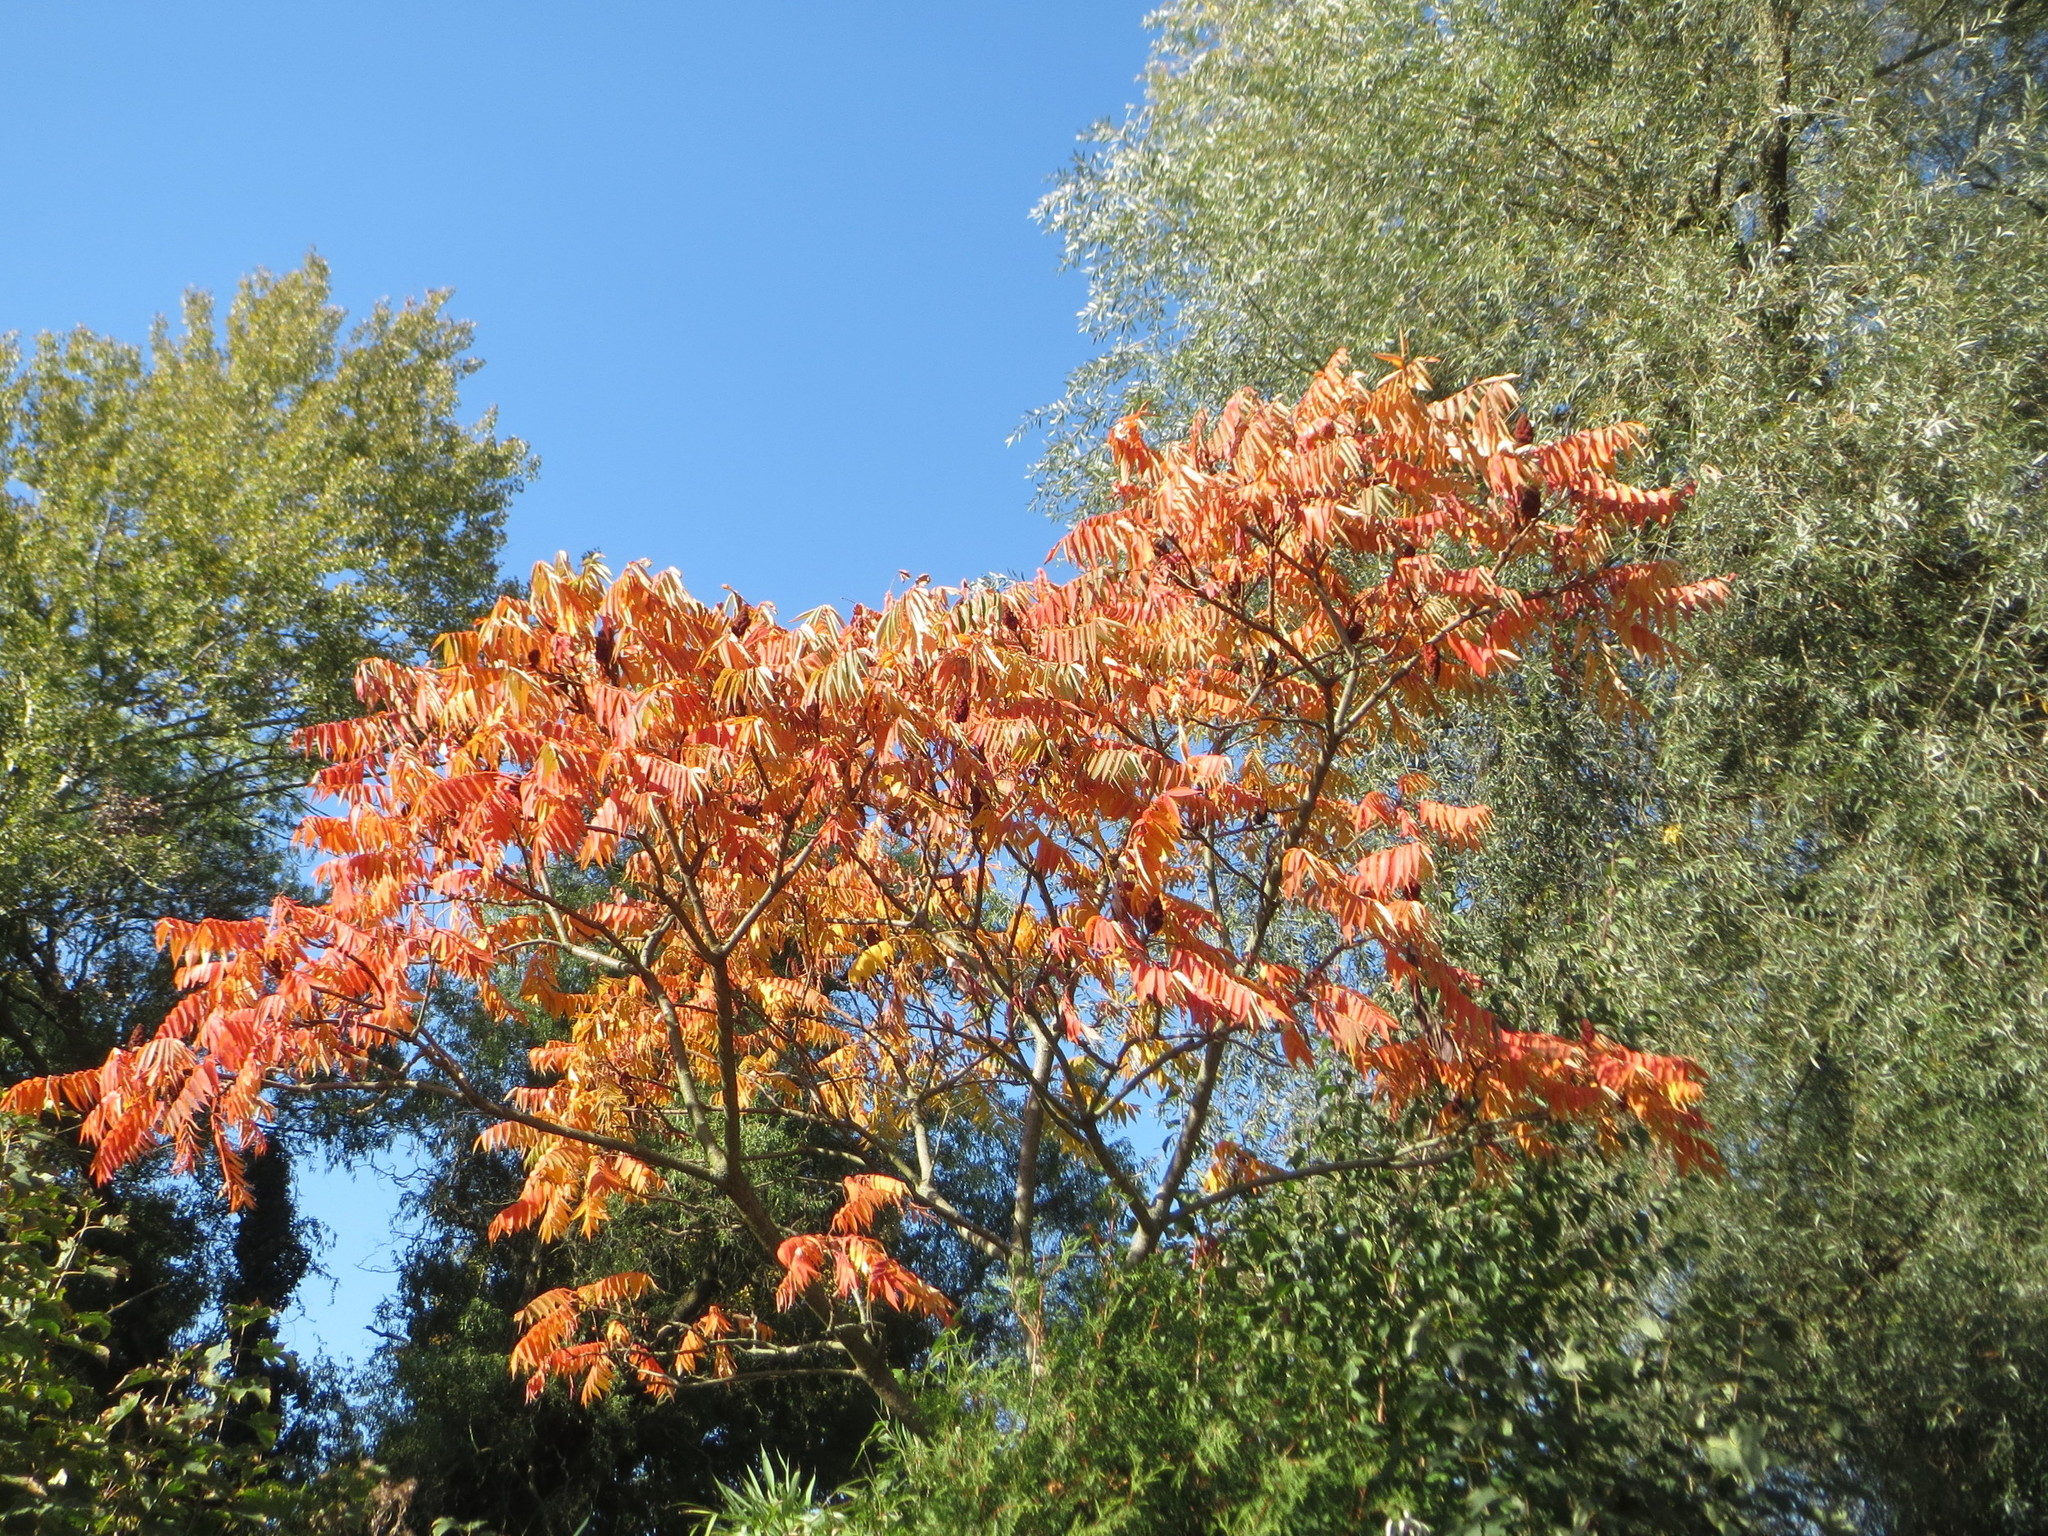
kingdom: Plantae
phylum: Tracheophyta
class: Magnoliopsida
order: Sapindales
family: Anacardiaceae
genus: Rhus
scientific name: Rhus typhina
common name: Staghorn sumac
